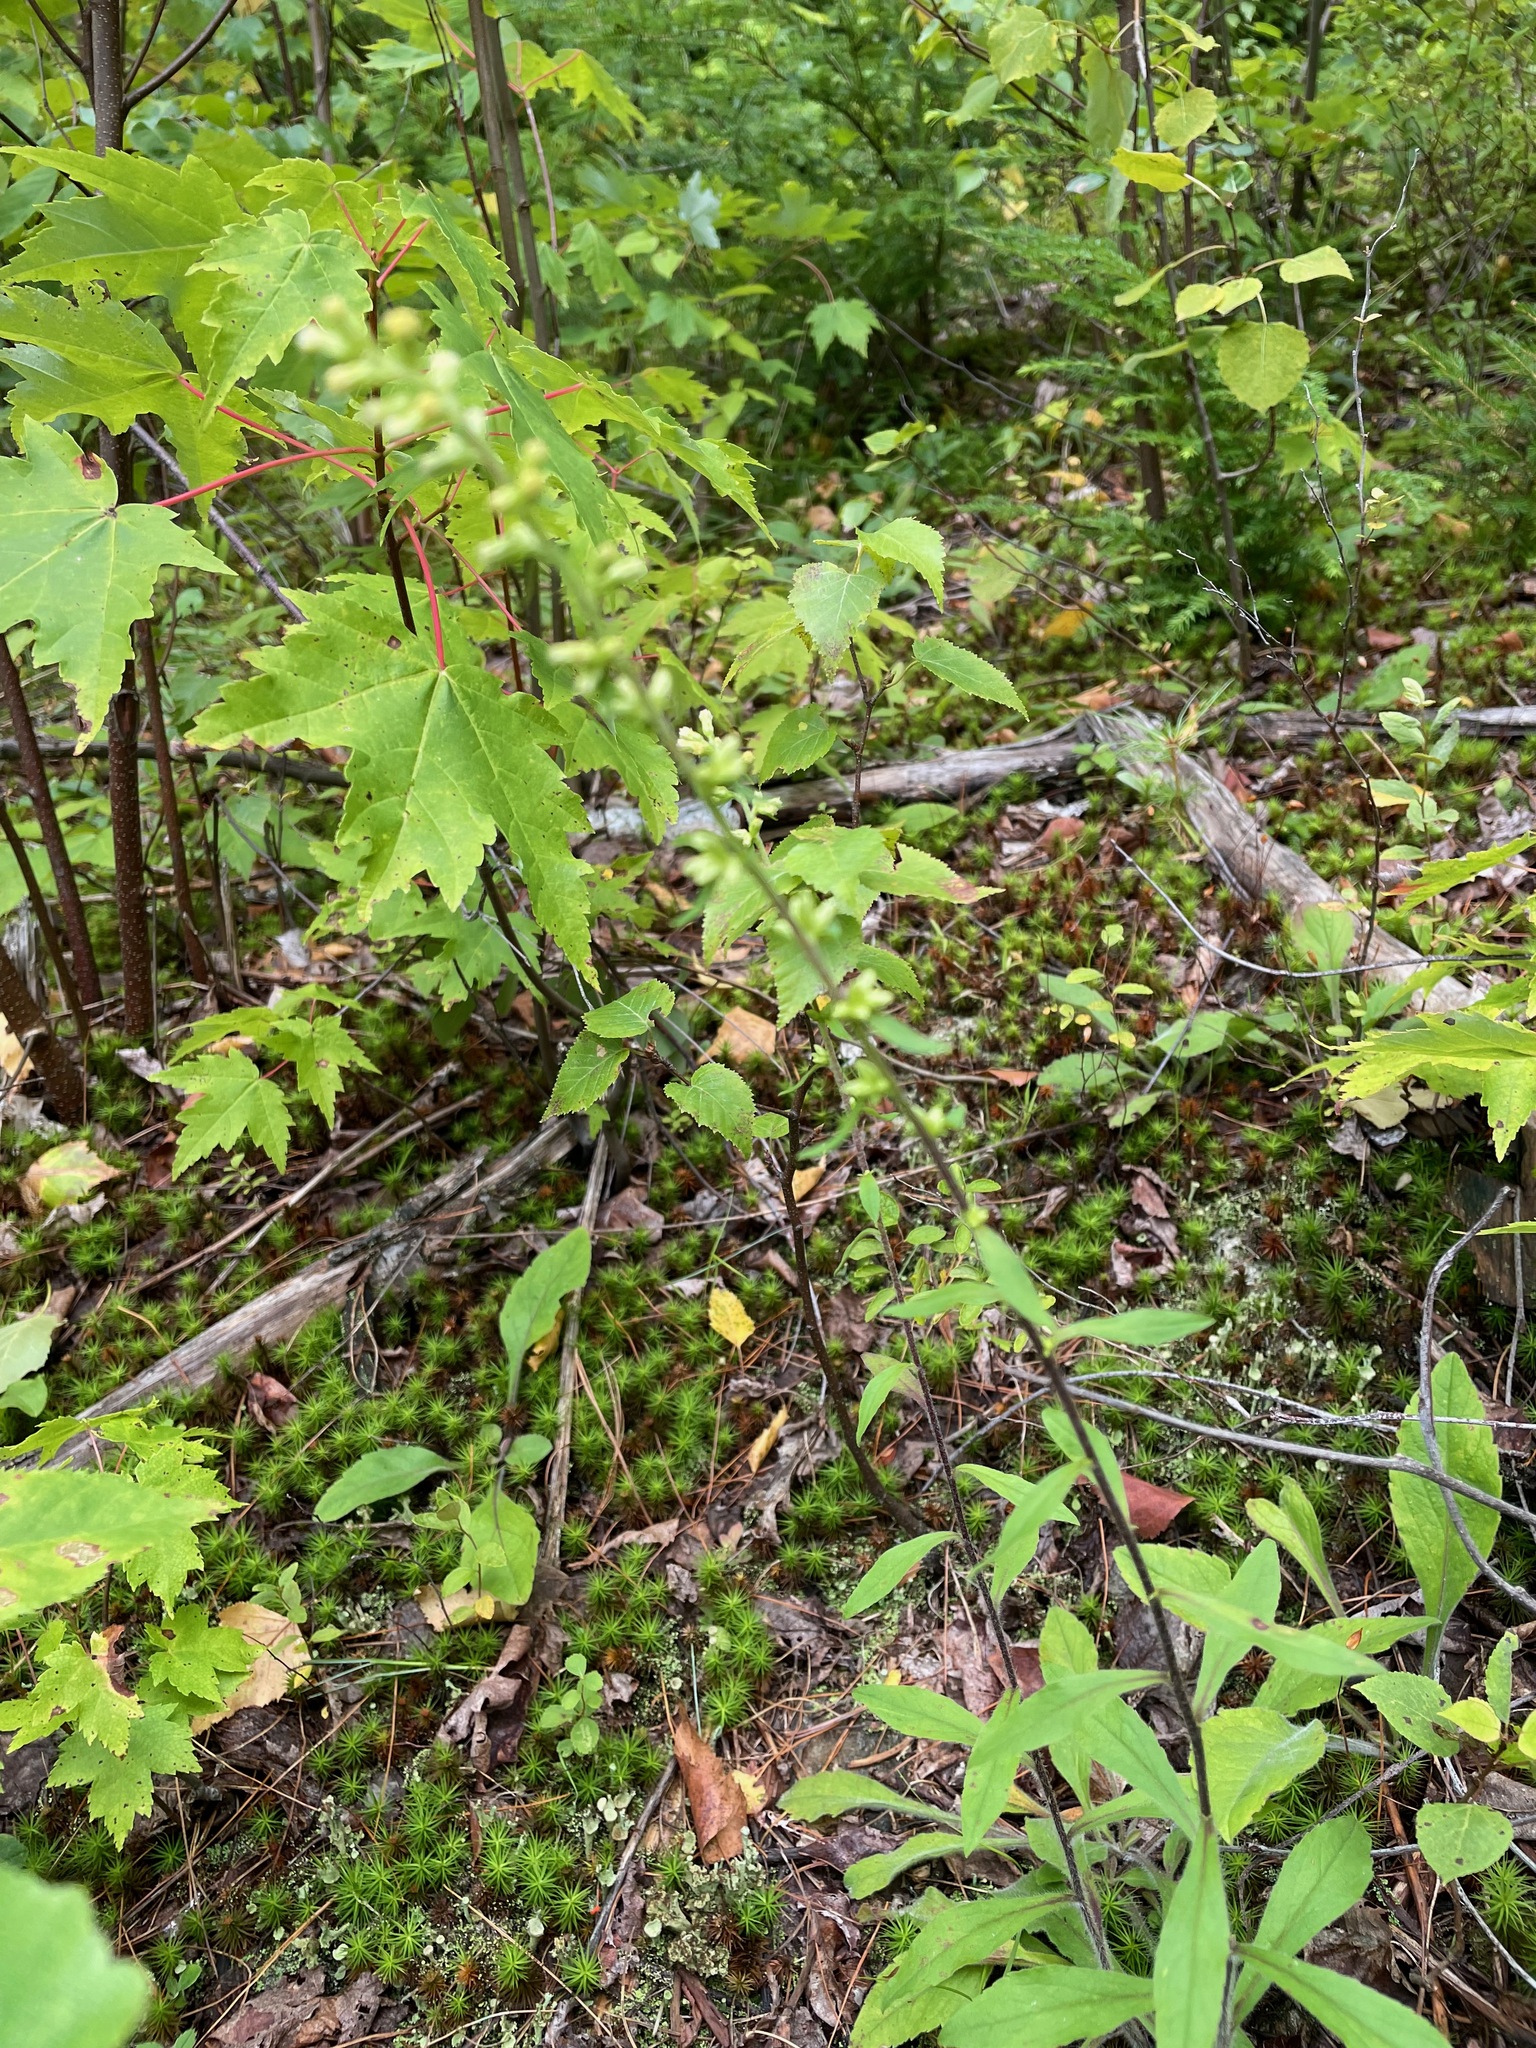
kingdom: Plantae
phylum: Tracheophyta
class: Magnoliopsida
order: Asterales
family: Asteraceae
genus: Solidago
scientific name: Solidago bicolor
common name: Silverrod
